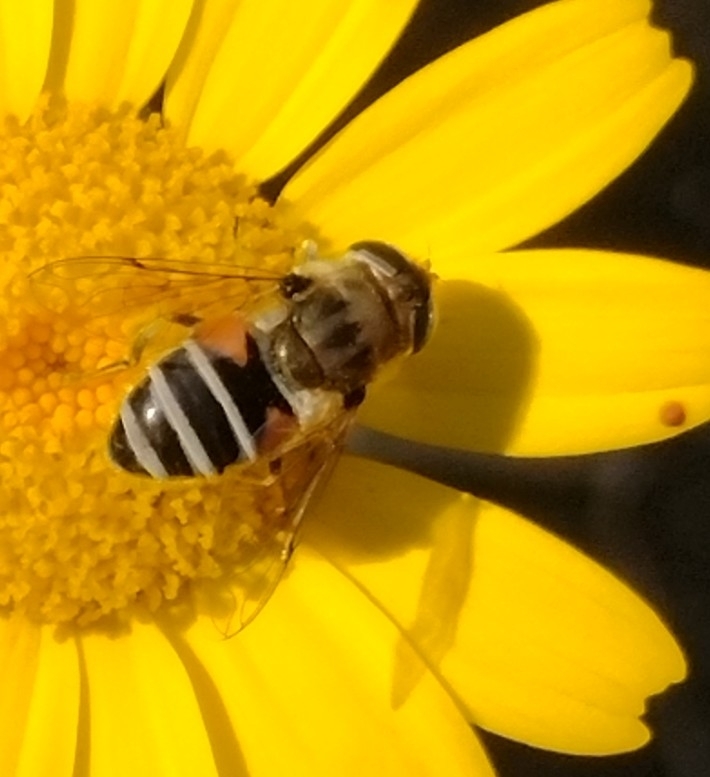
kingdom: Animalia
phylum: Arthropoda
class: Insecta
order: Diptera
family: Syrphidae
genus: Eristalis
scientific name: Eristalis arbustorum
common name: Hover fly
